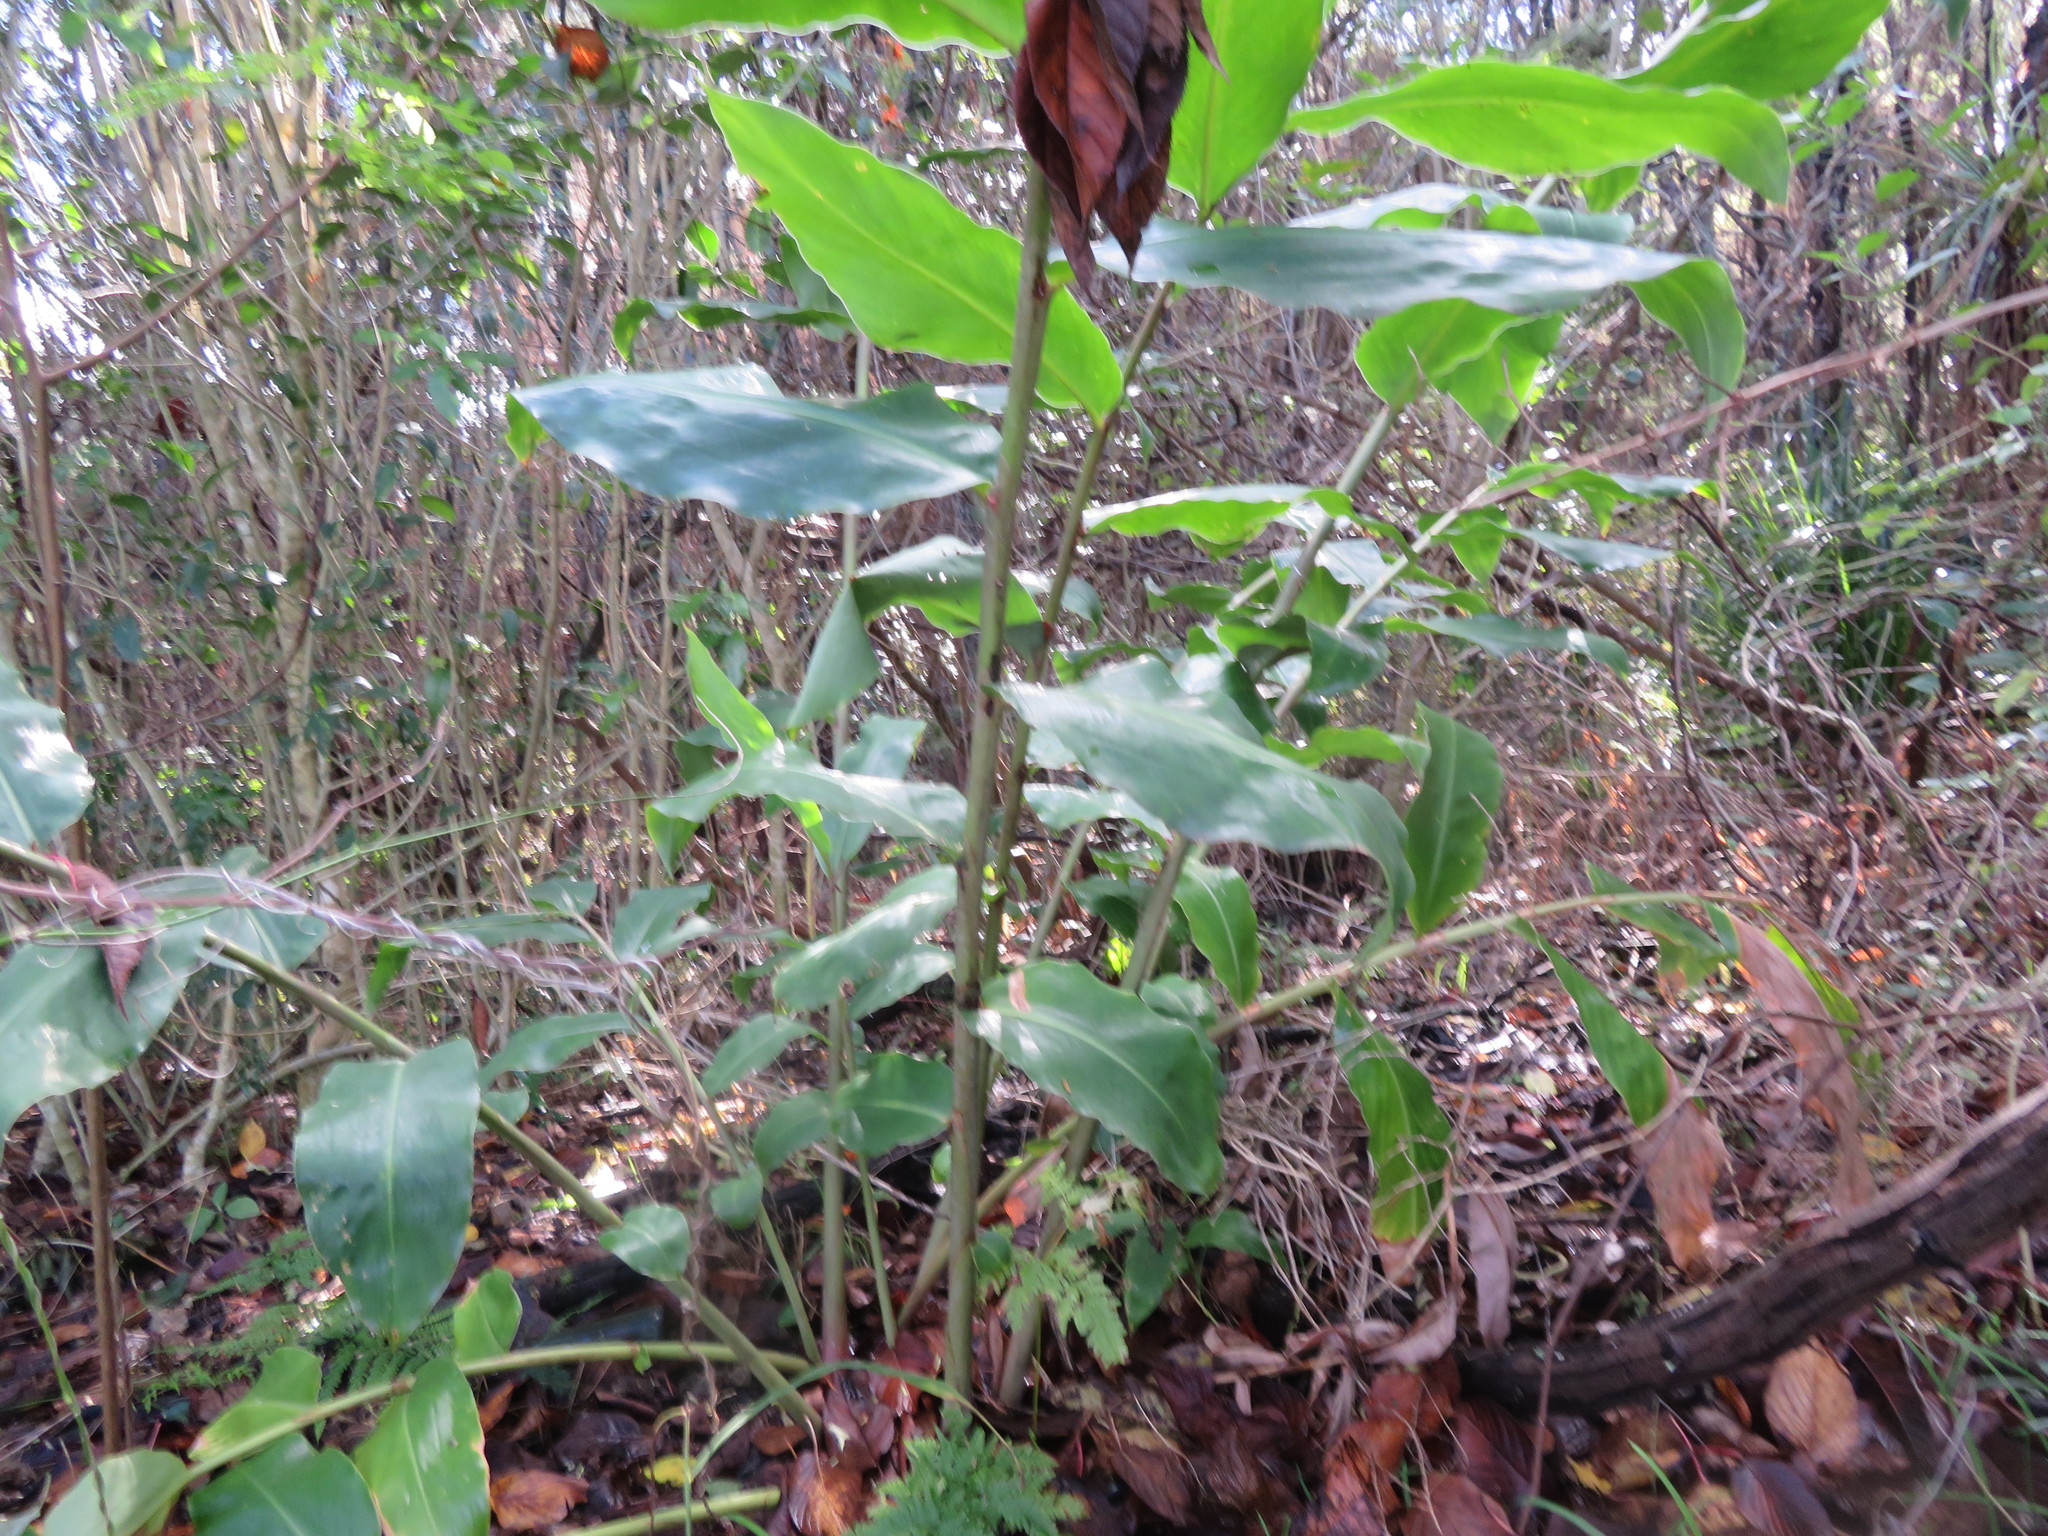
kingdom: Plantae
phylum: Tracheophyta
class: Liliopsida
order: Zingiberales
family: Zingiberaceae
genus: Hedychium
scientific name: Hedychium gardnerianum
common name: Himalayan ginger
